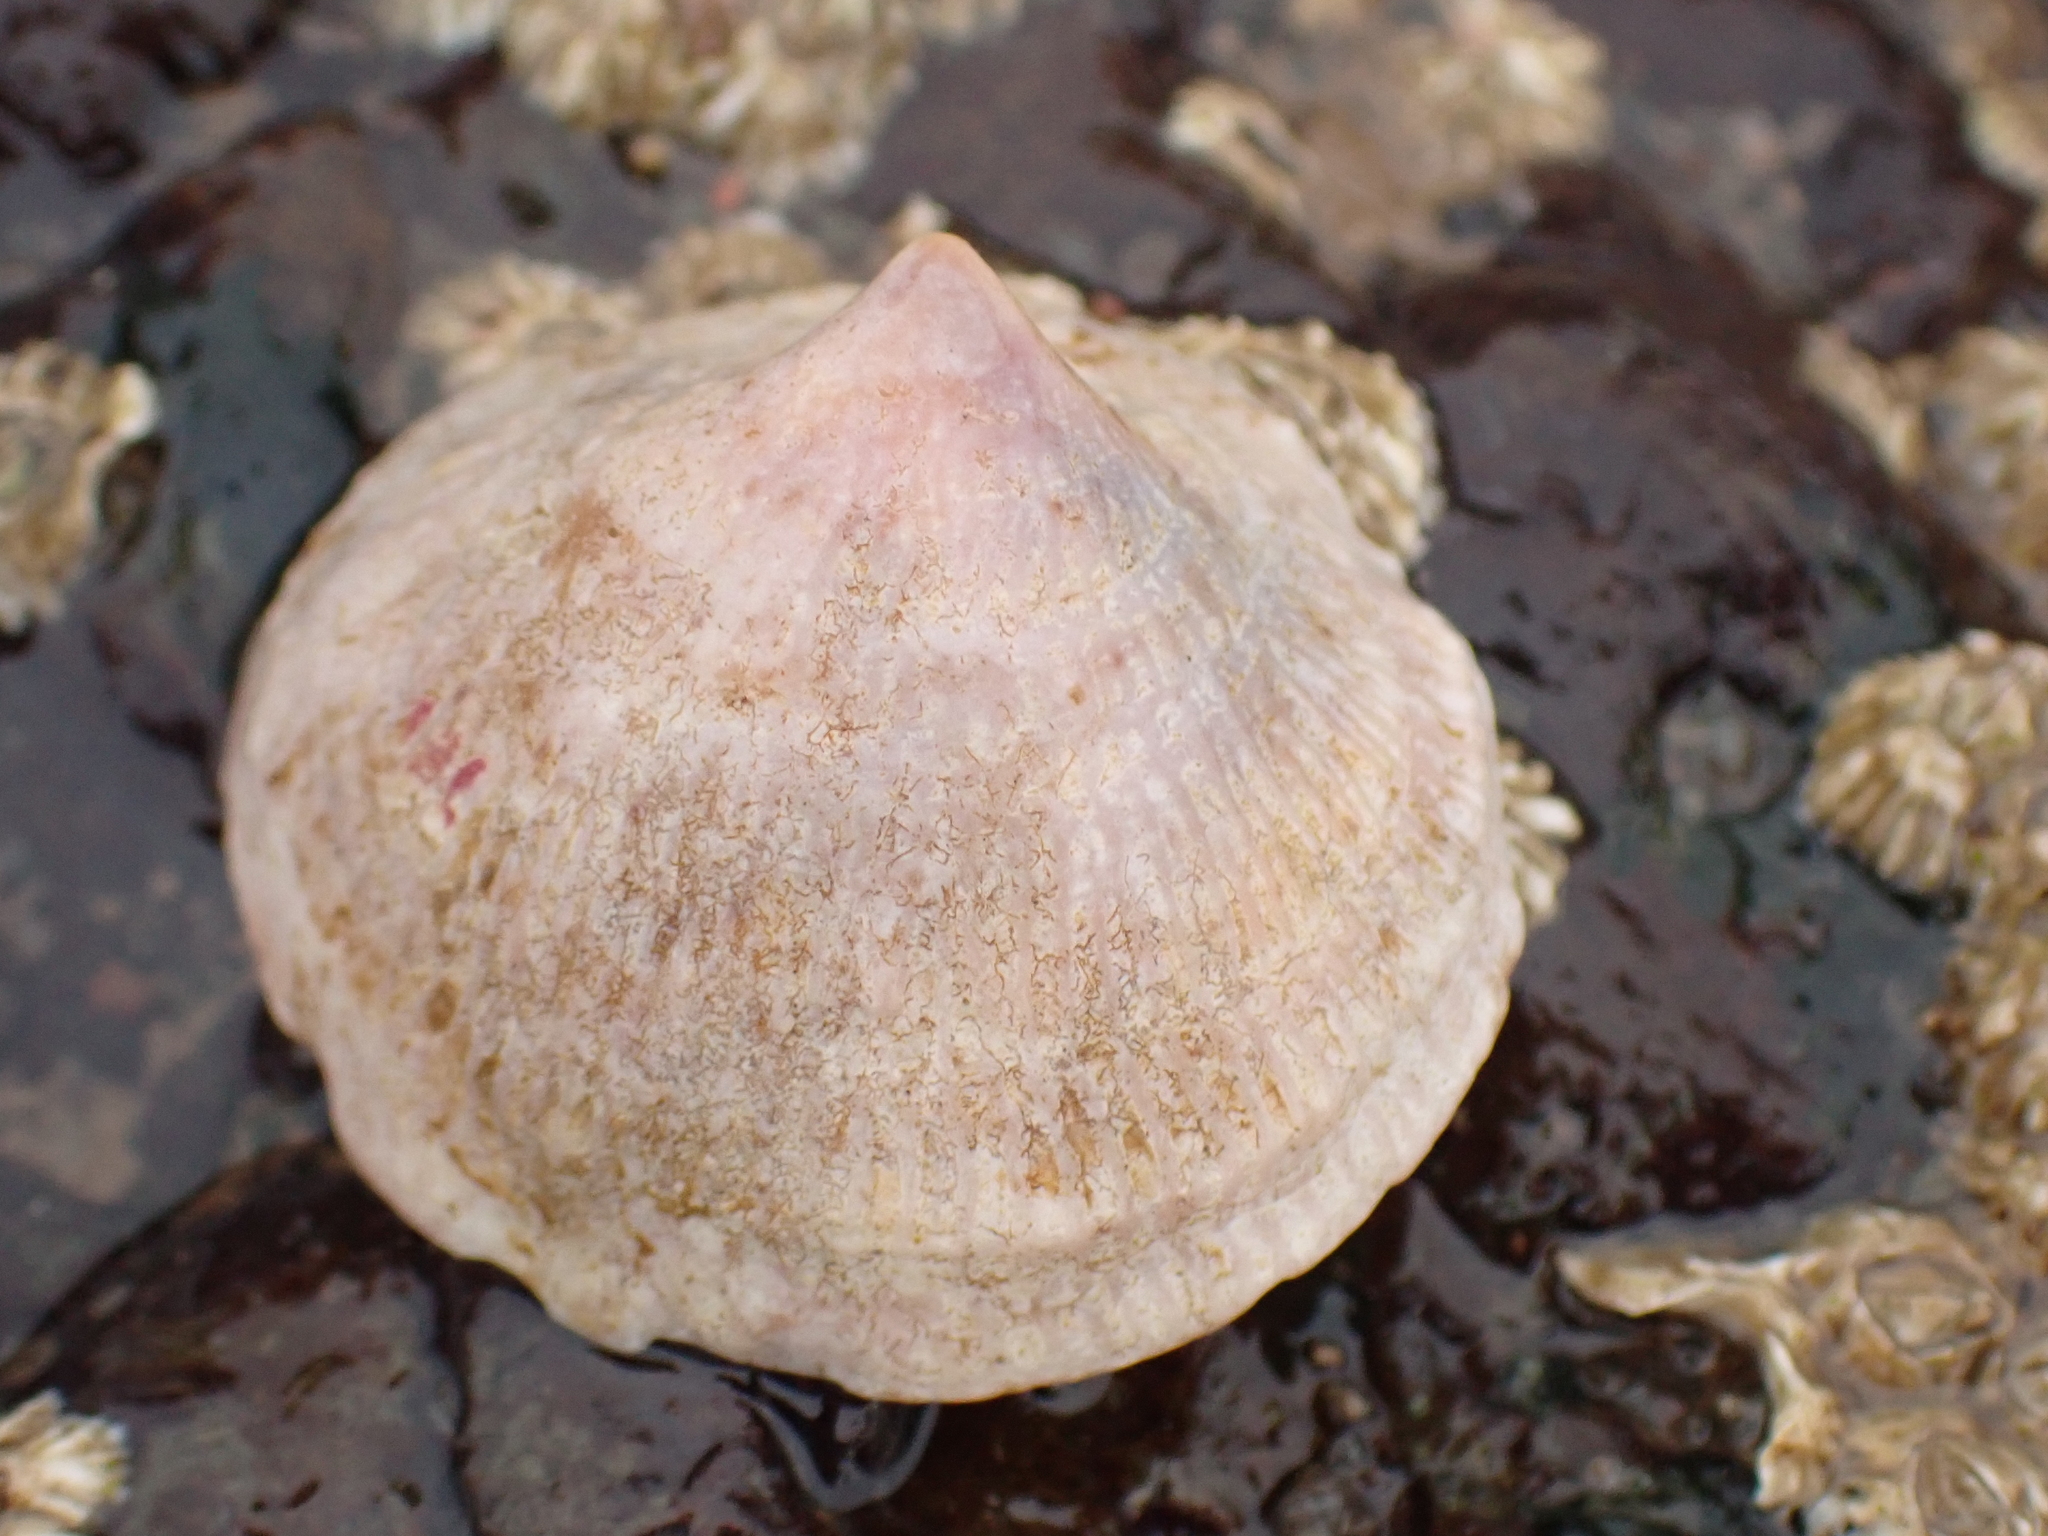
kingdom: Animalia
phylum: Mollusca
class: Gastropoda
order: Littorinimorpha
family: Calyptraeidae
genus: Crucibulum
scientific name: Crucibulum striatum
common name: Striate cup-and -saucer
